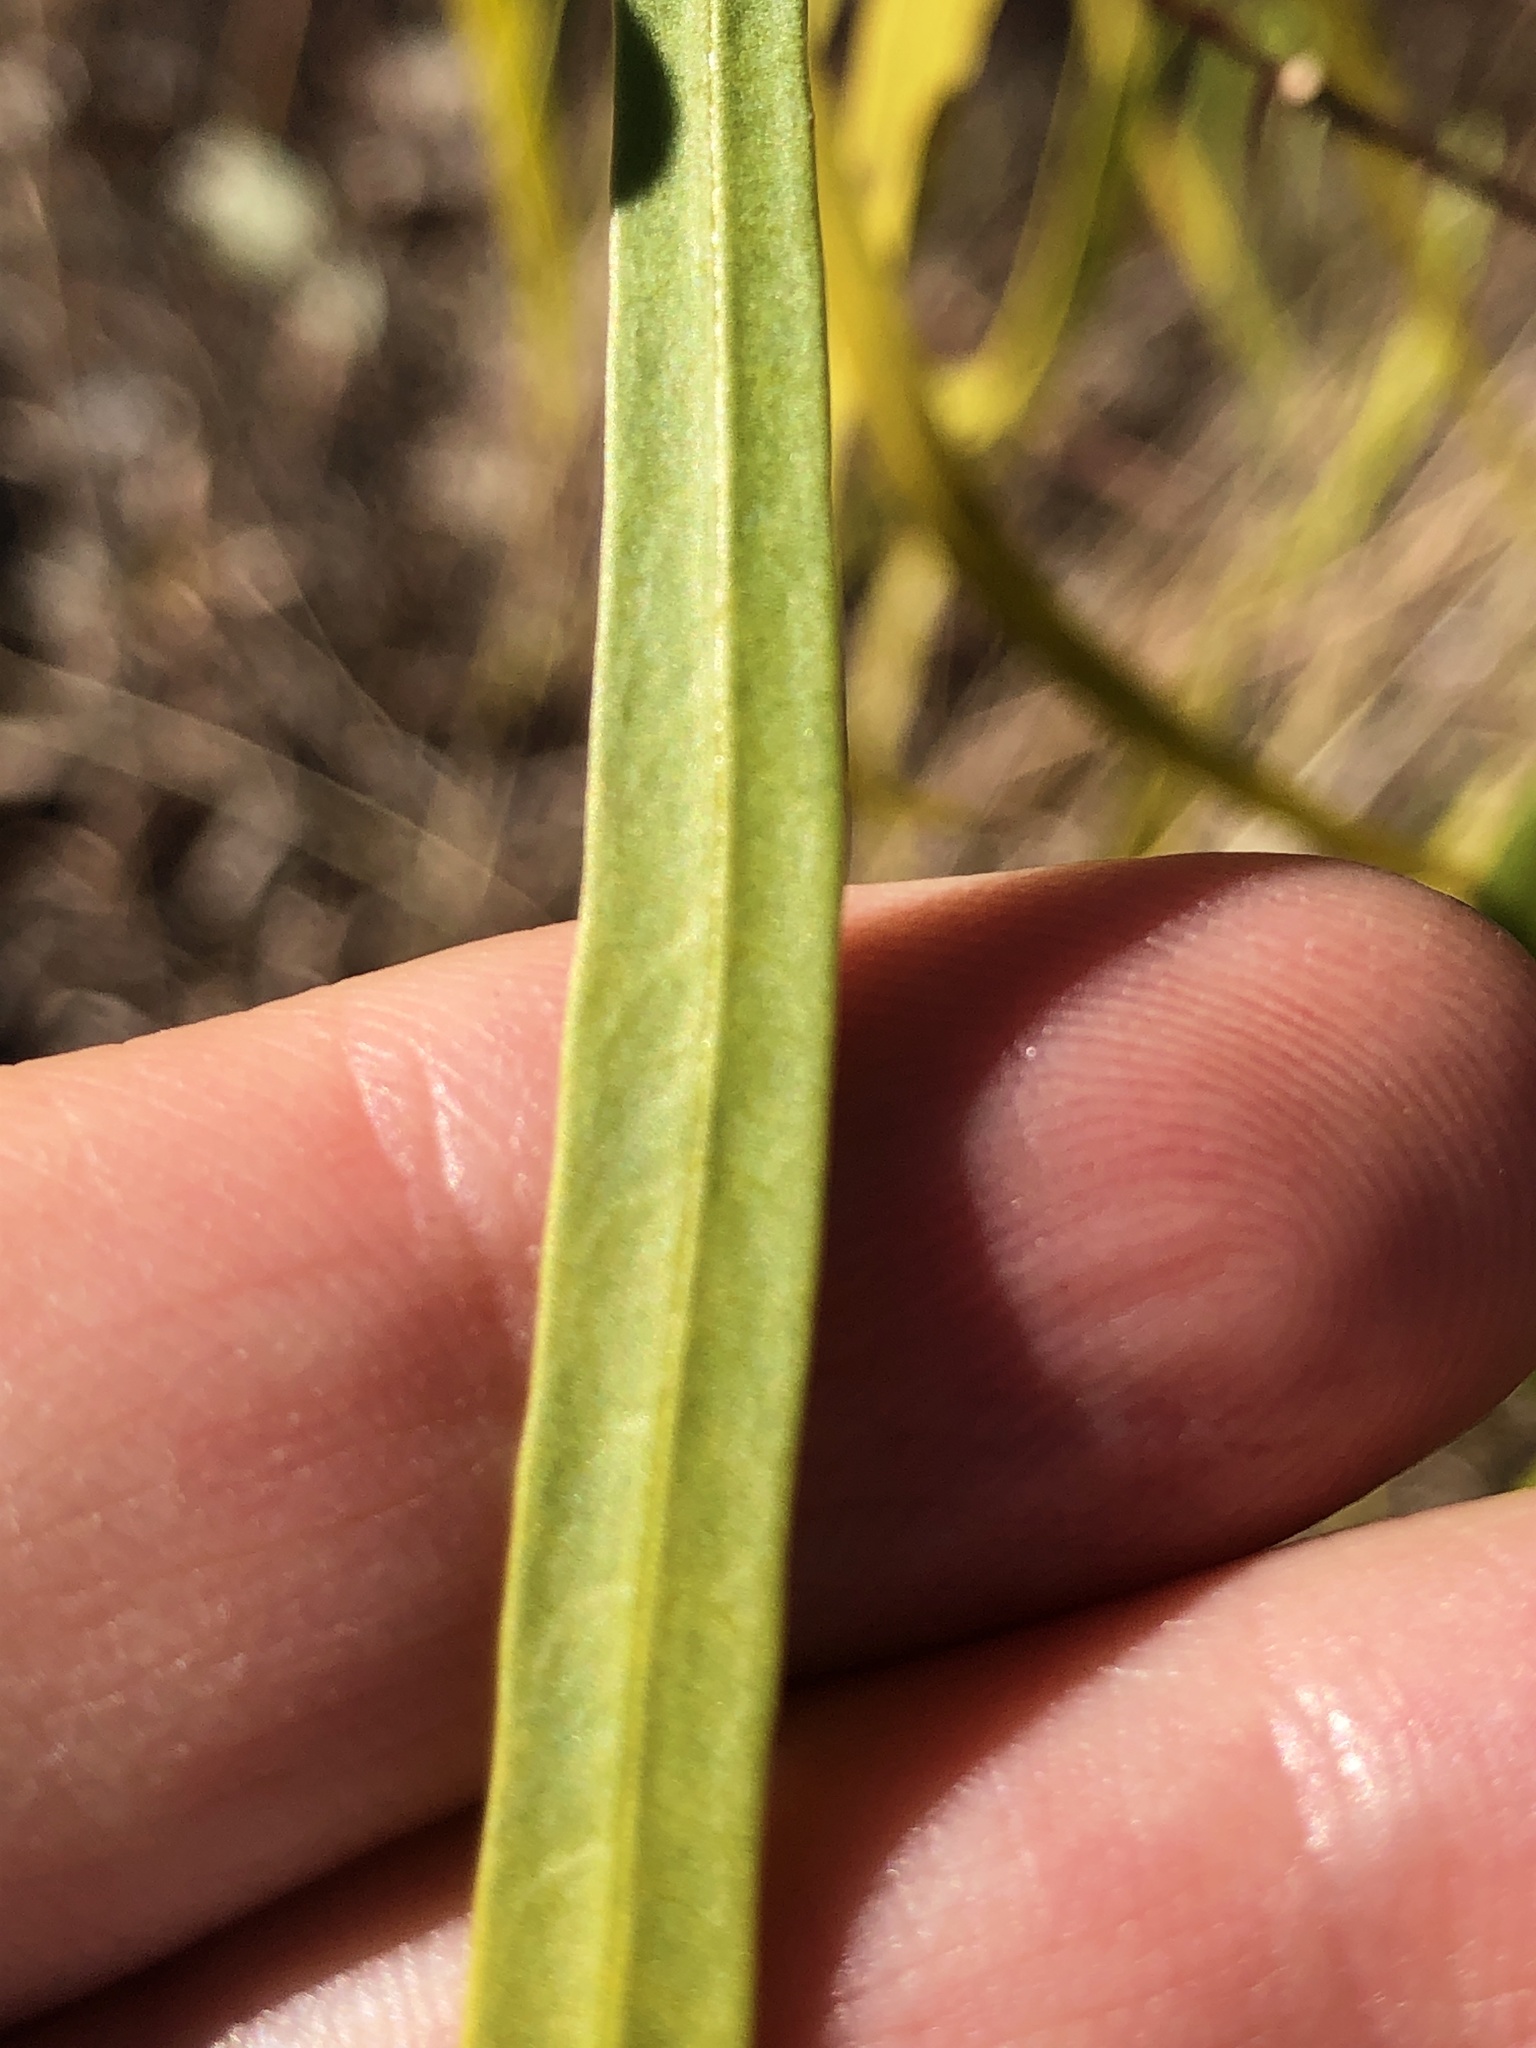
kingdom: Plantae
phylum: Tracheophyta
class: Magnoliopsida
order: Gentianales
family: Apocynaceae
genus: Wrightia
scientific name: Wrightia saligna
